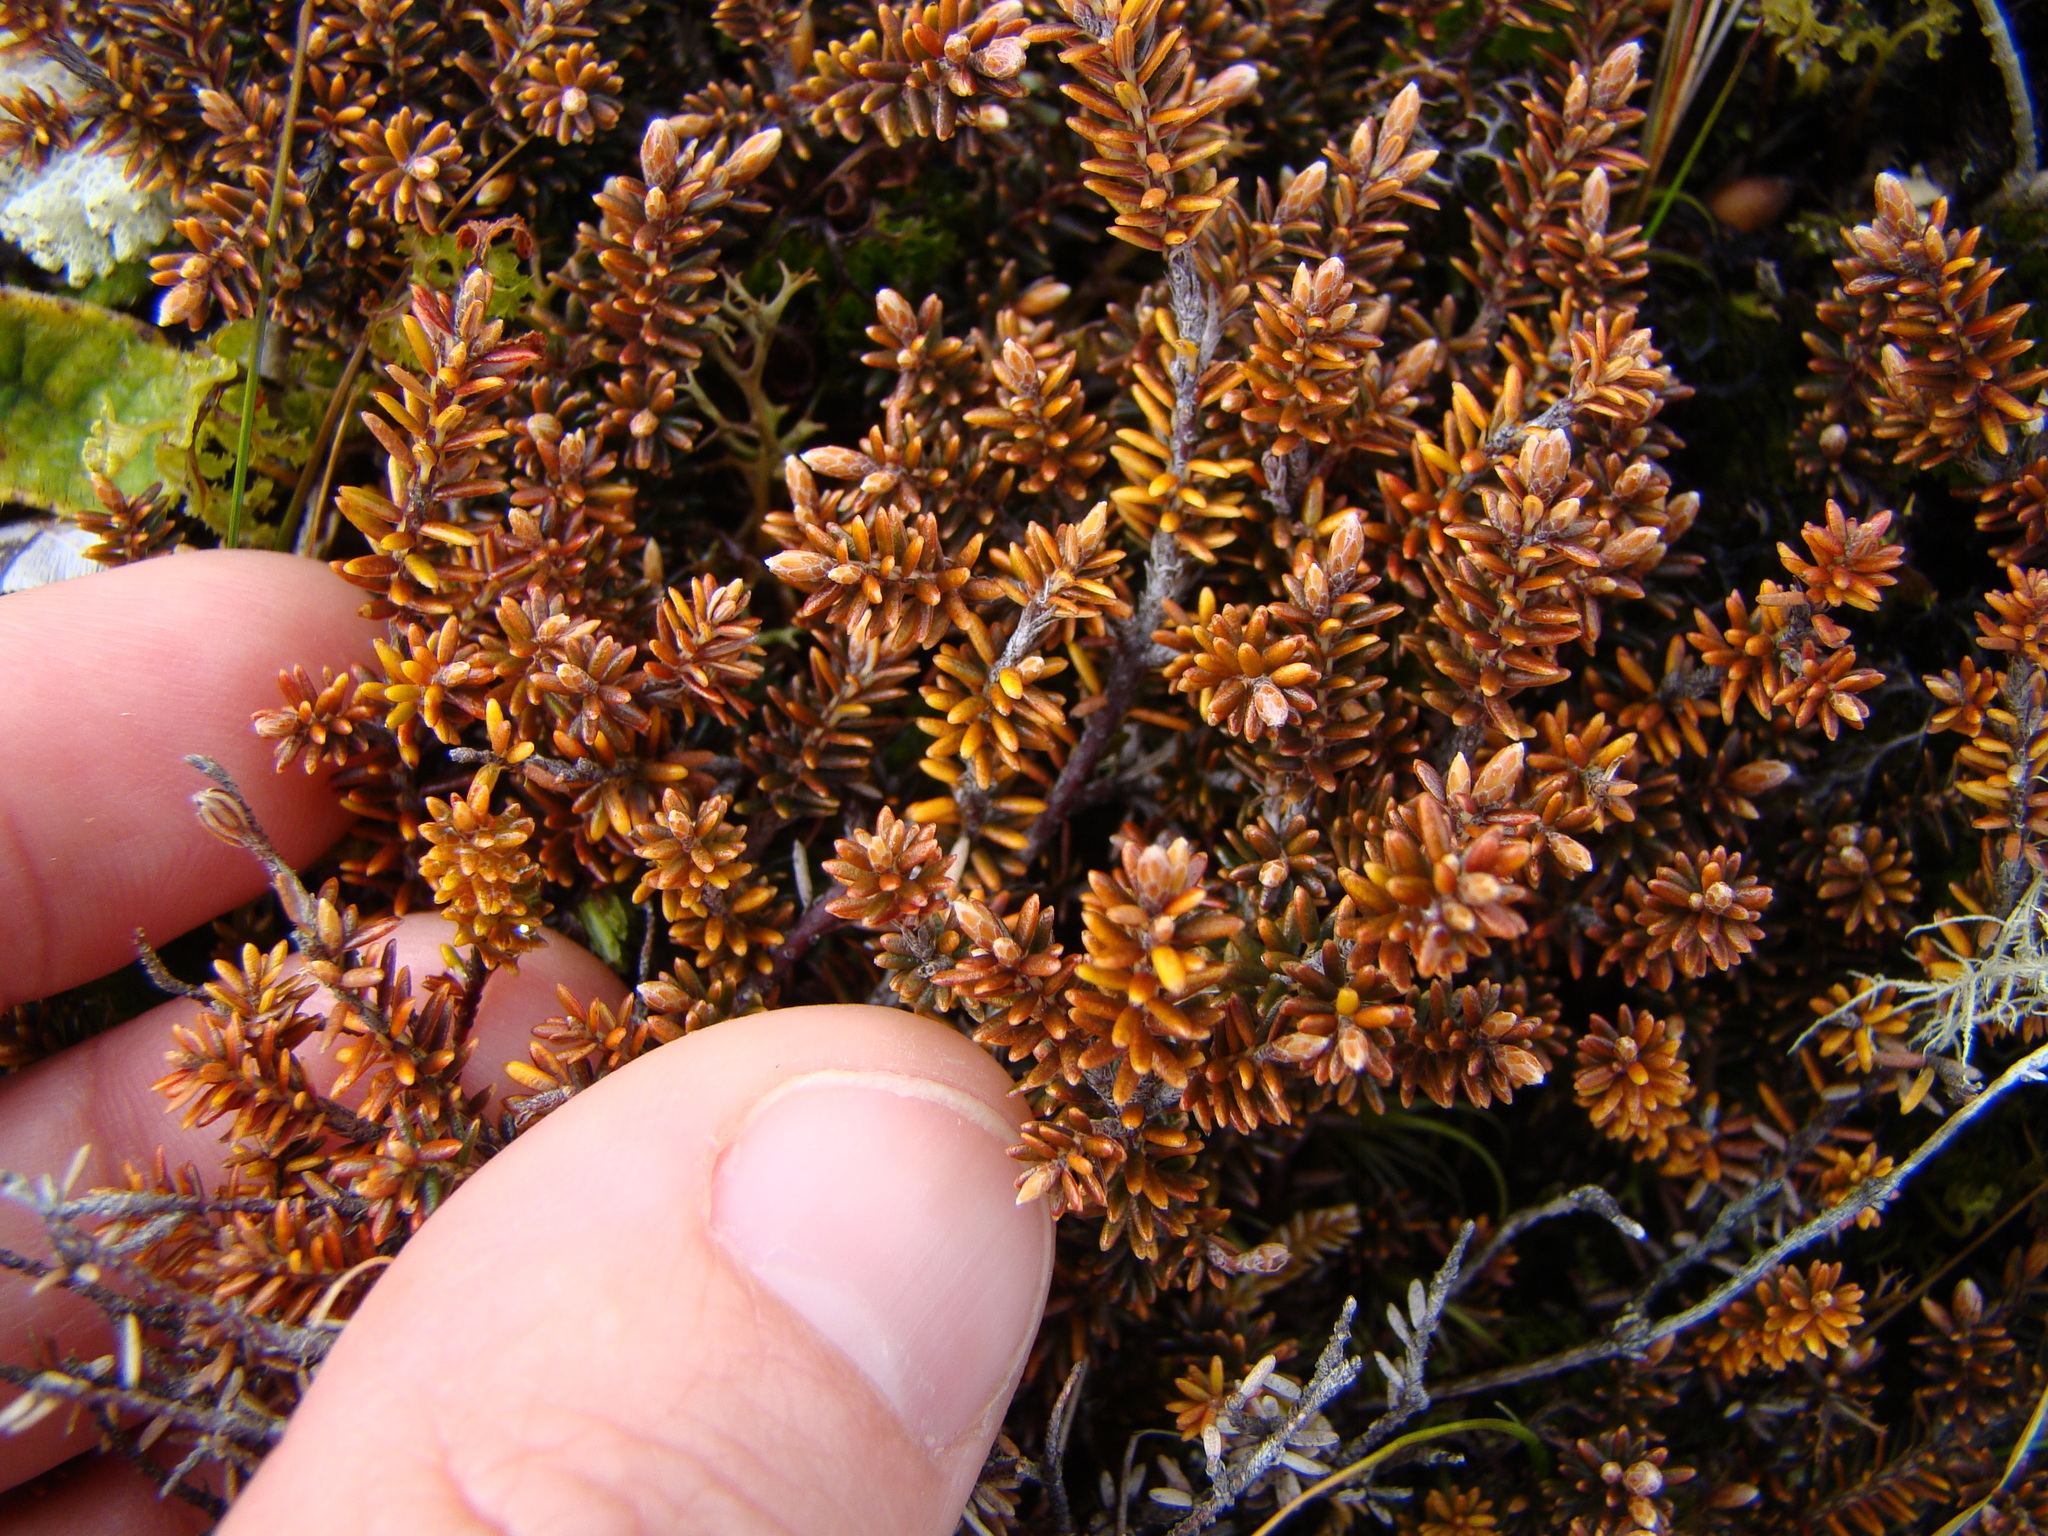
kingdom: Plantae
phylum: Tracheophyta
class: Magnoliopsida
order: Ericales
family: Ericaceae
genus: Androstoma
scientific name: Androstoma empetrifolia
